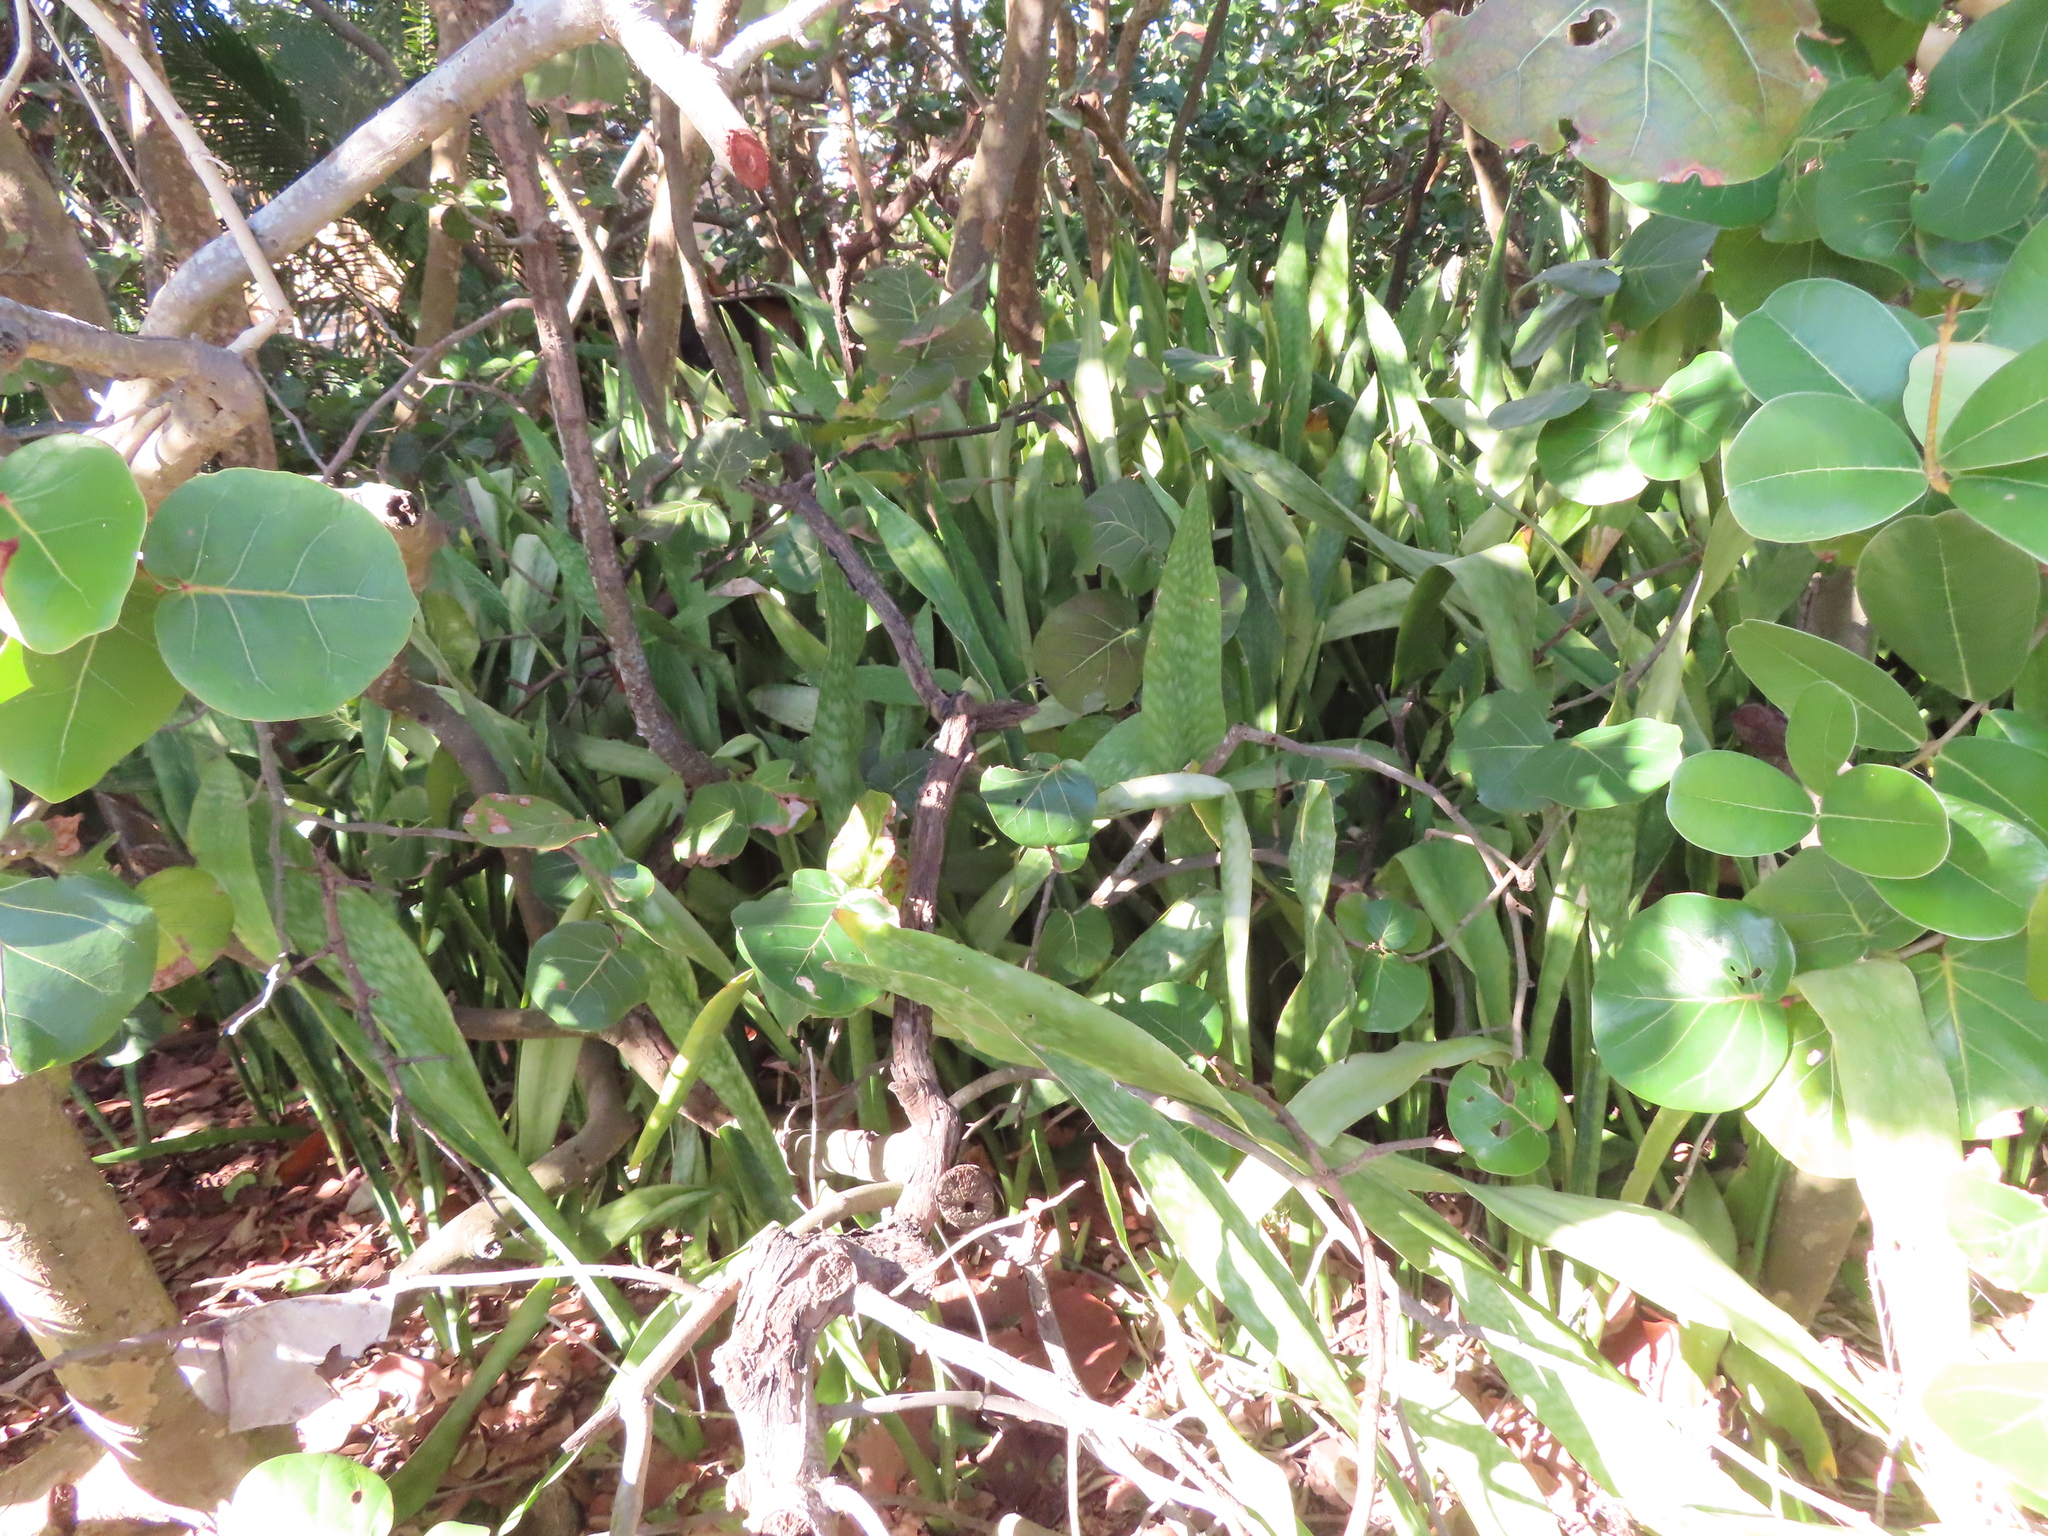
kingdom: Plantae
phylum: Tracheophyta
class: Liliopsida
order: Asparagales
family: Asparagaceae
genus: Dracaena
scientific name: Dracaena hyacinthoides
